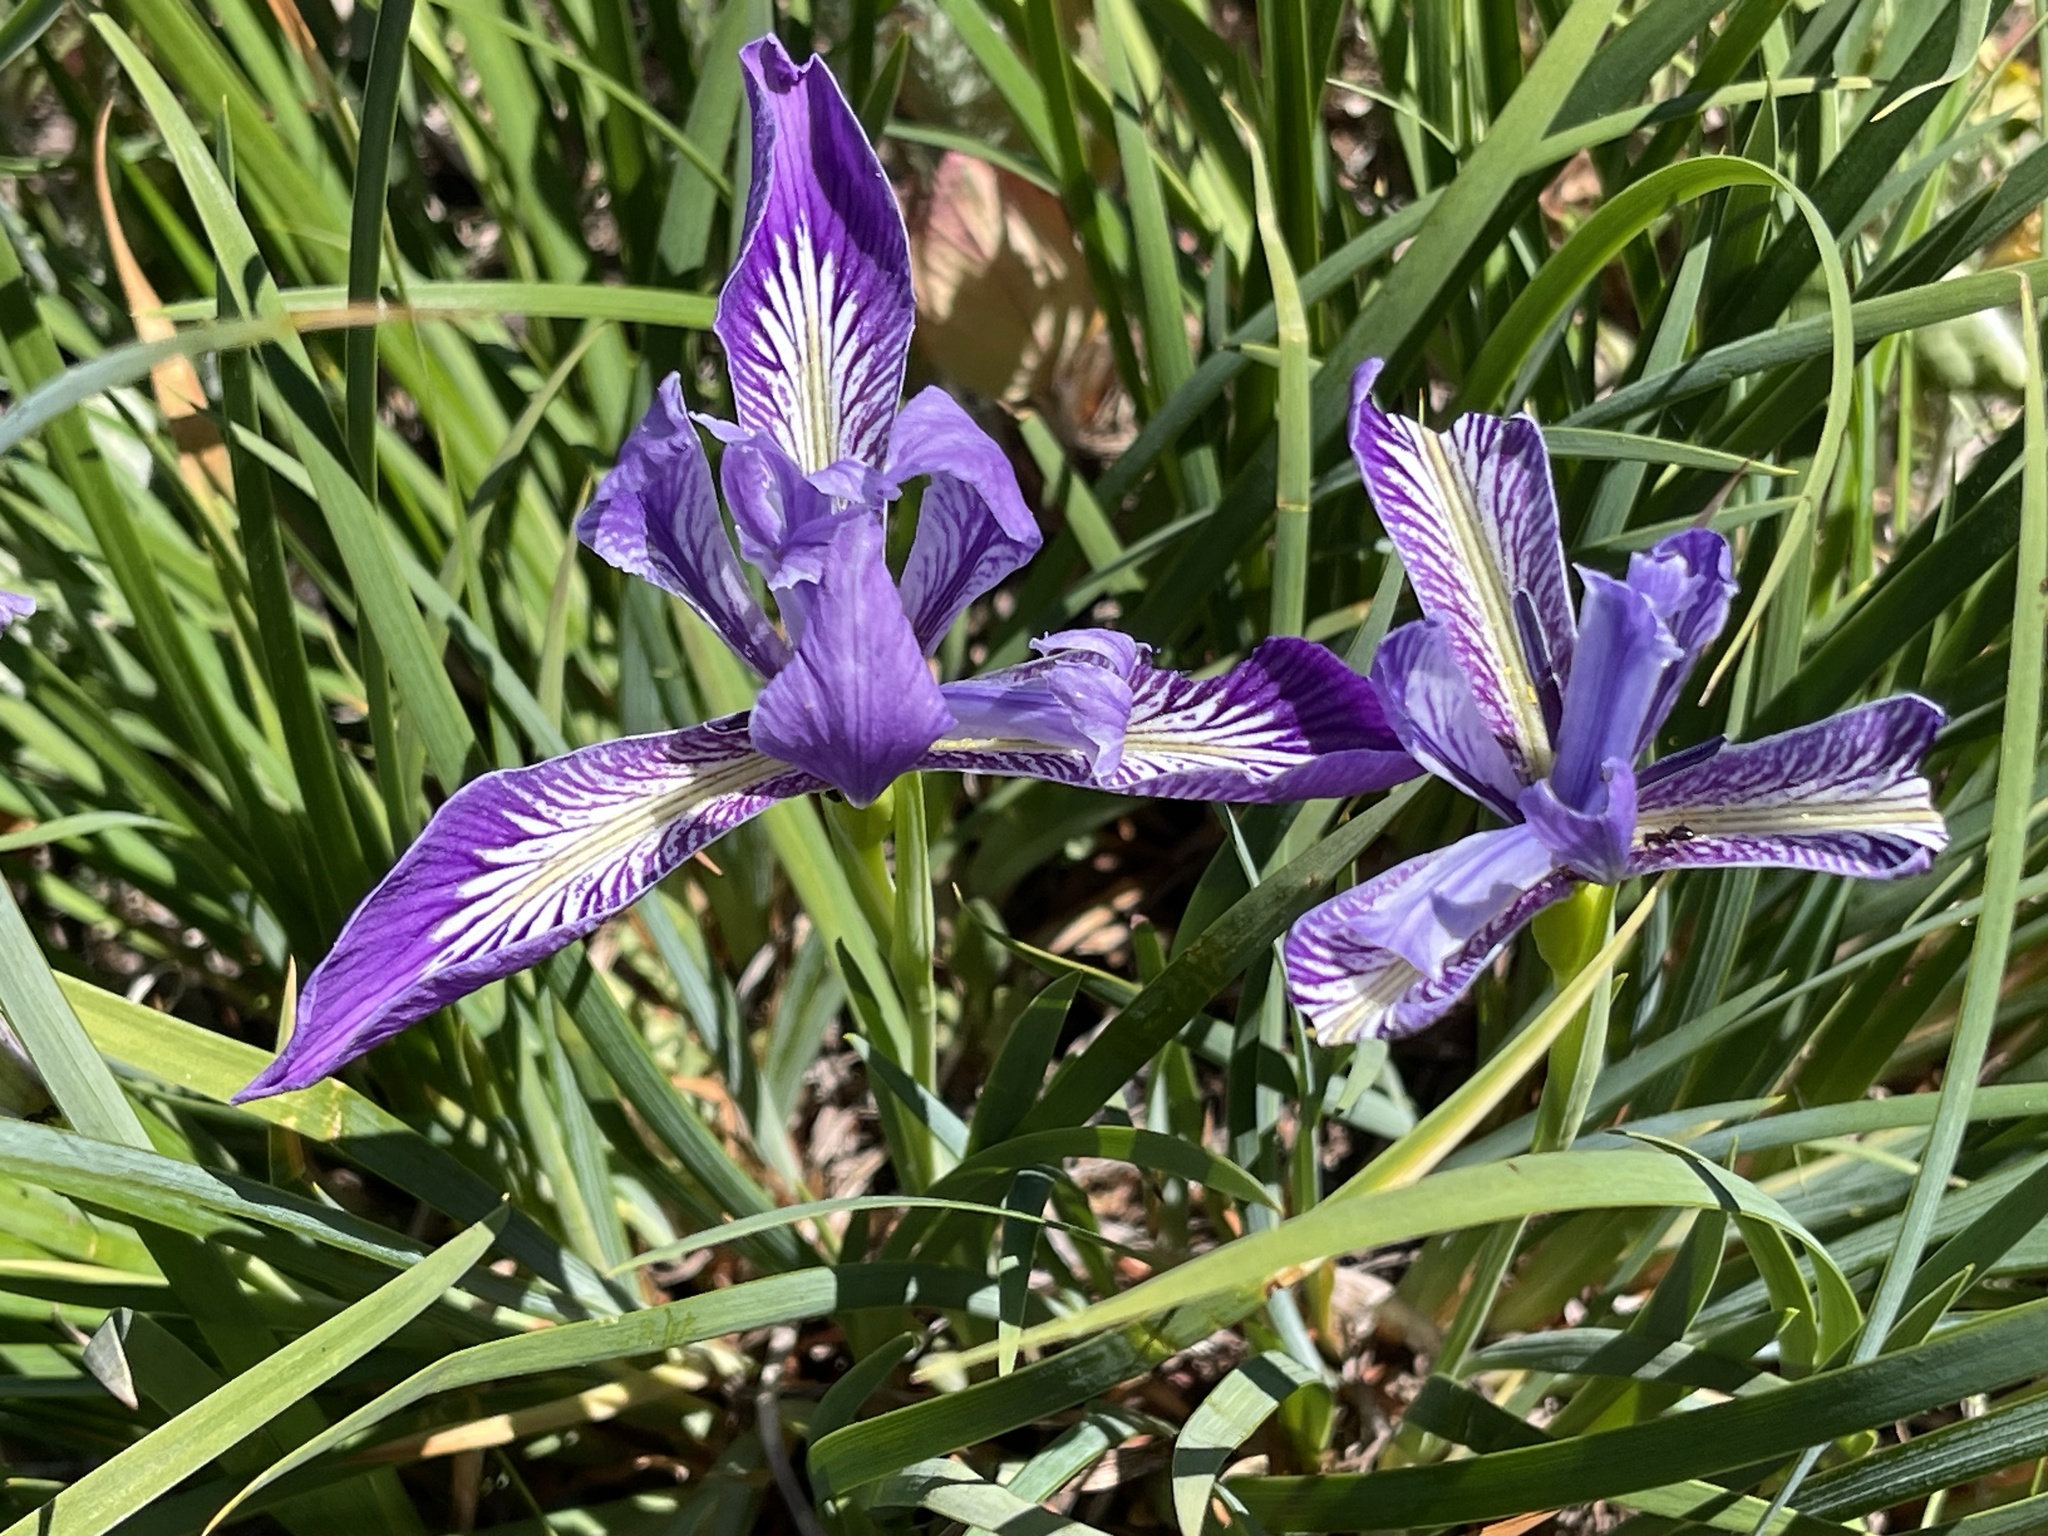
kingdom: Plantae
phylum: Tracheophyta
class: Liliopsida
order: Asparagales
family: Iridaceae
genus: Iris
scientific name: Iris tenax
